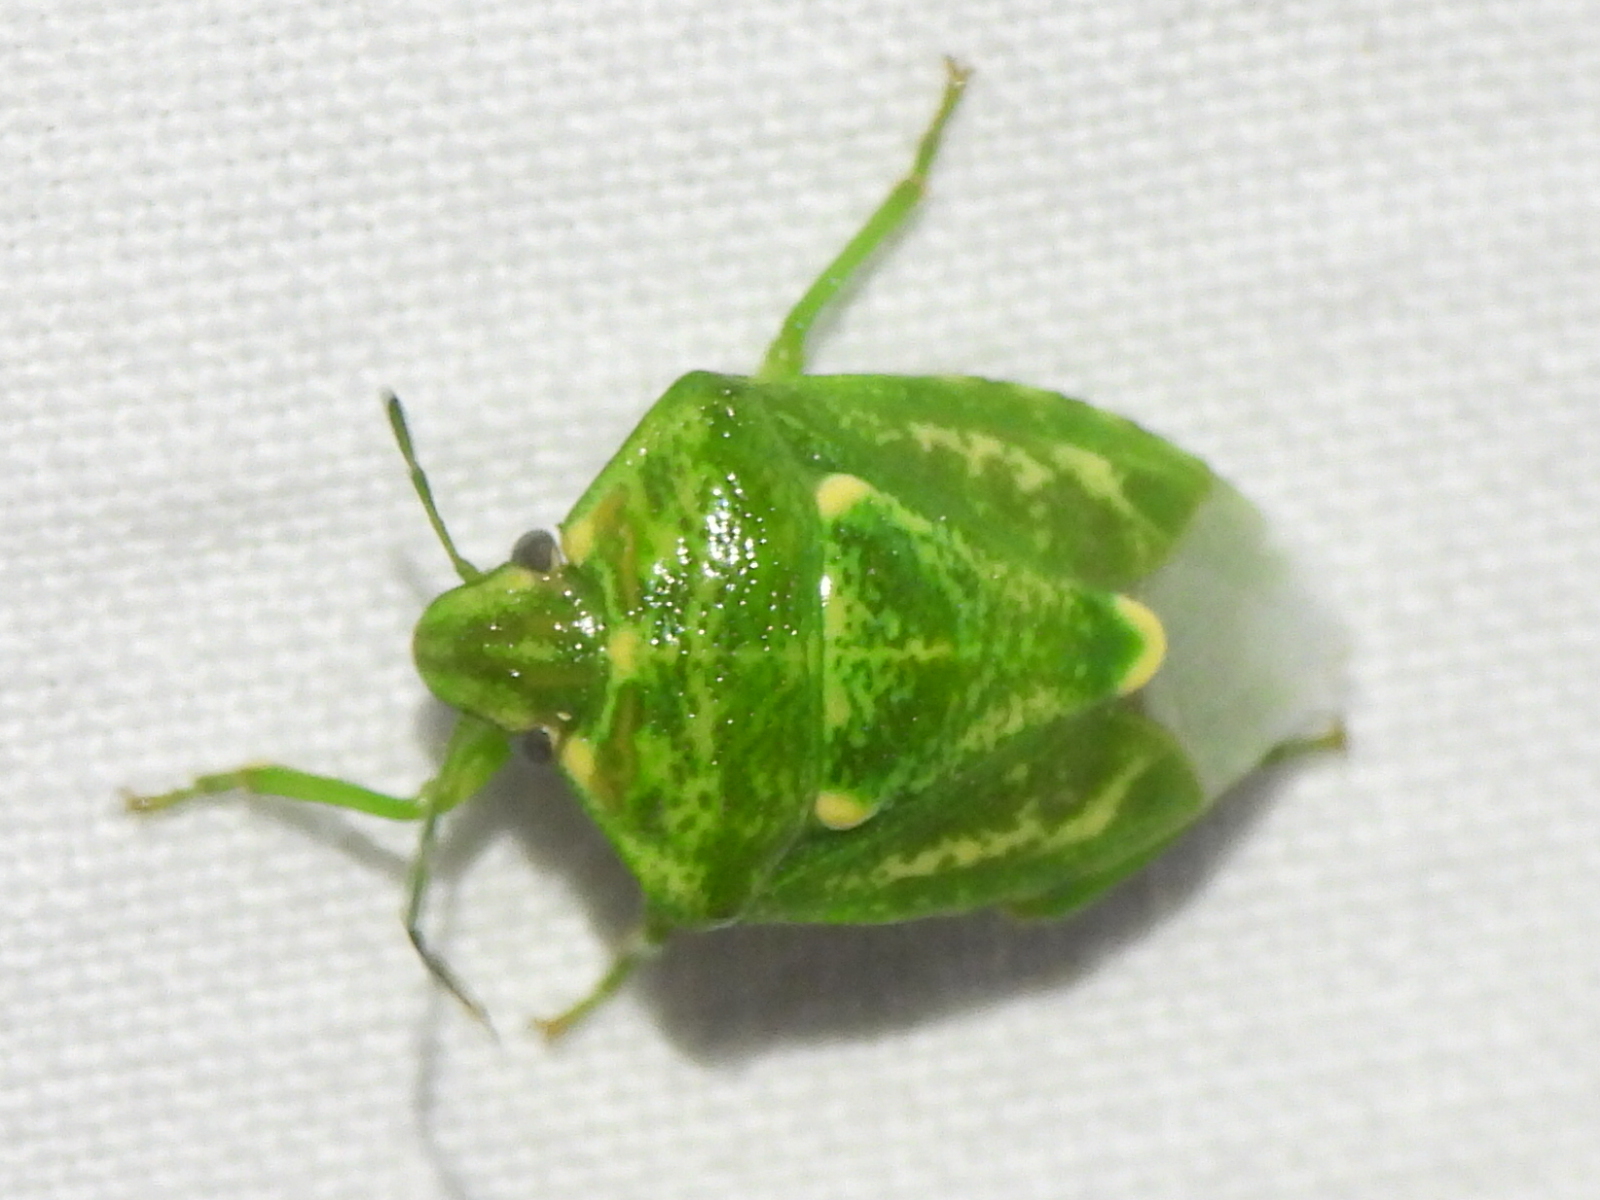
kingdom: Animalia
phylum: Arthropoda
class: Insecta
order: Hemiptera
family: Pentatomidae
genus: Banasa
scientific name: Banasa euchlora
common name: Cedar berry bug
